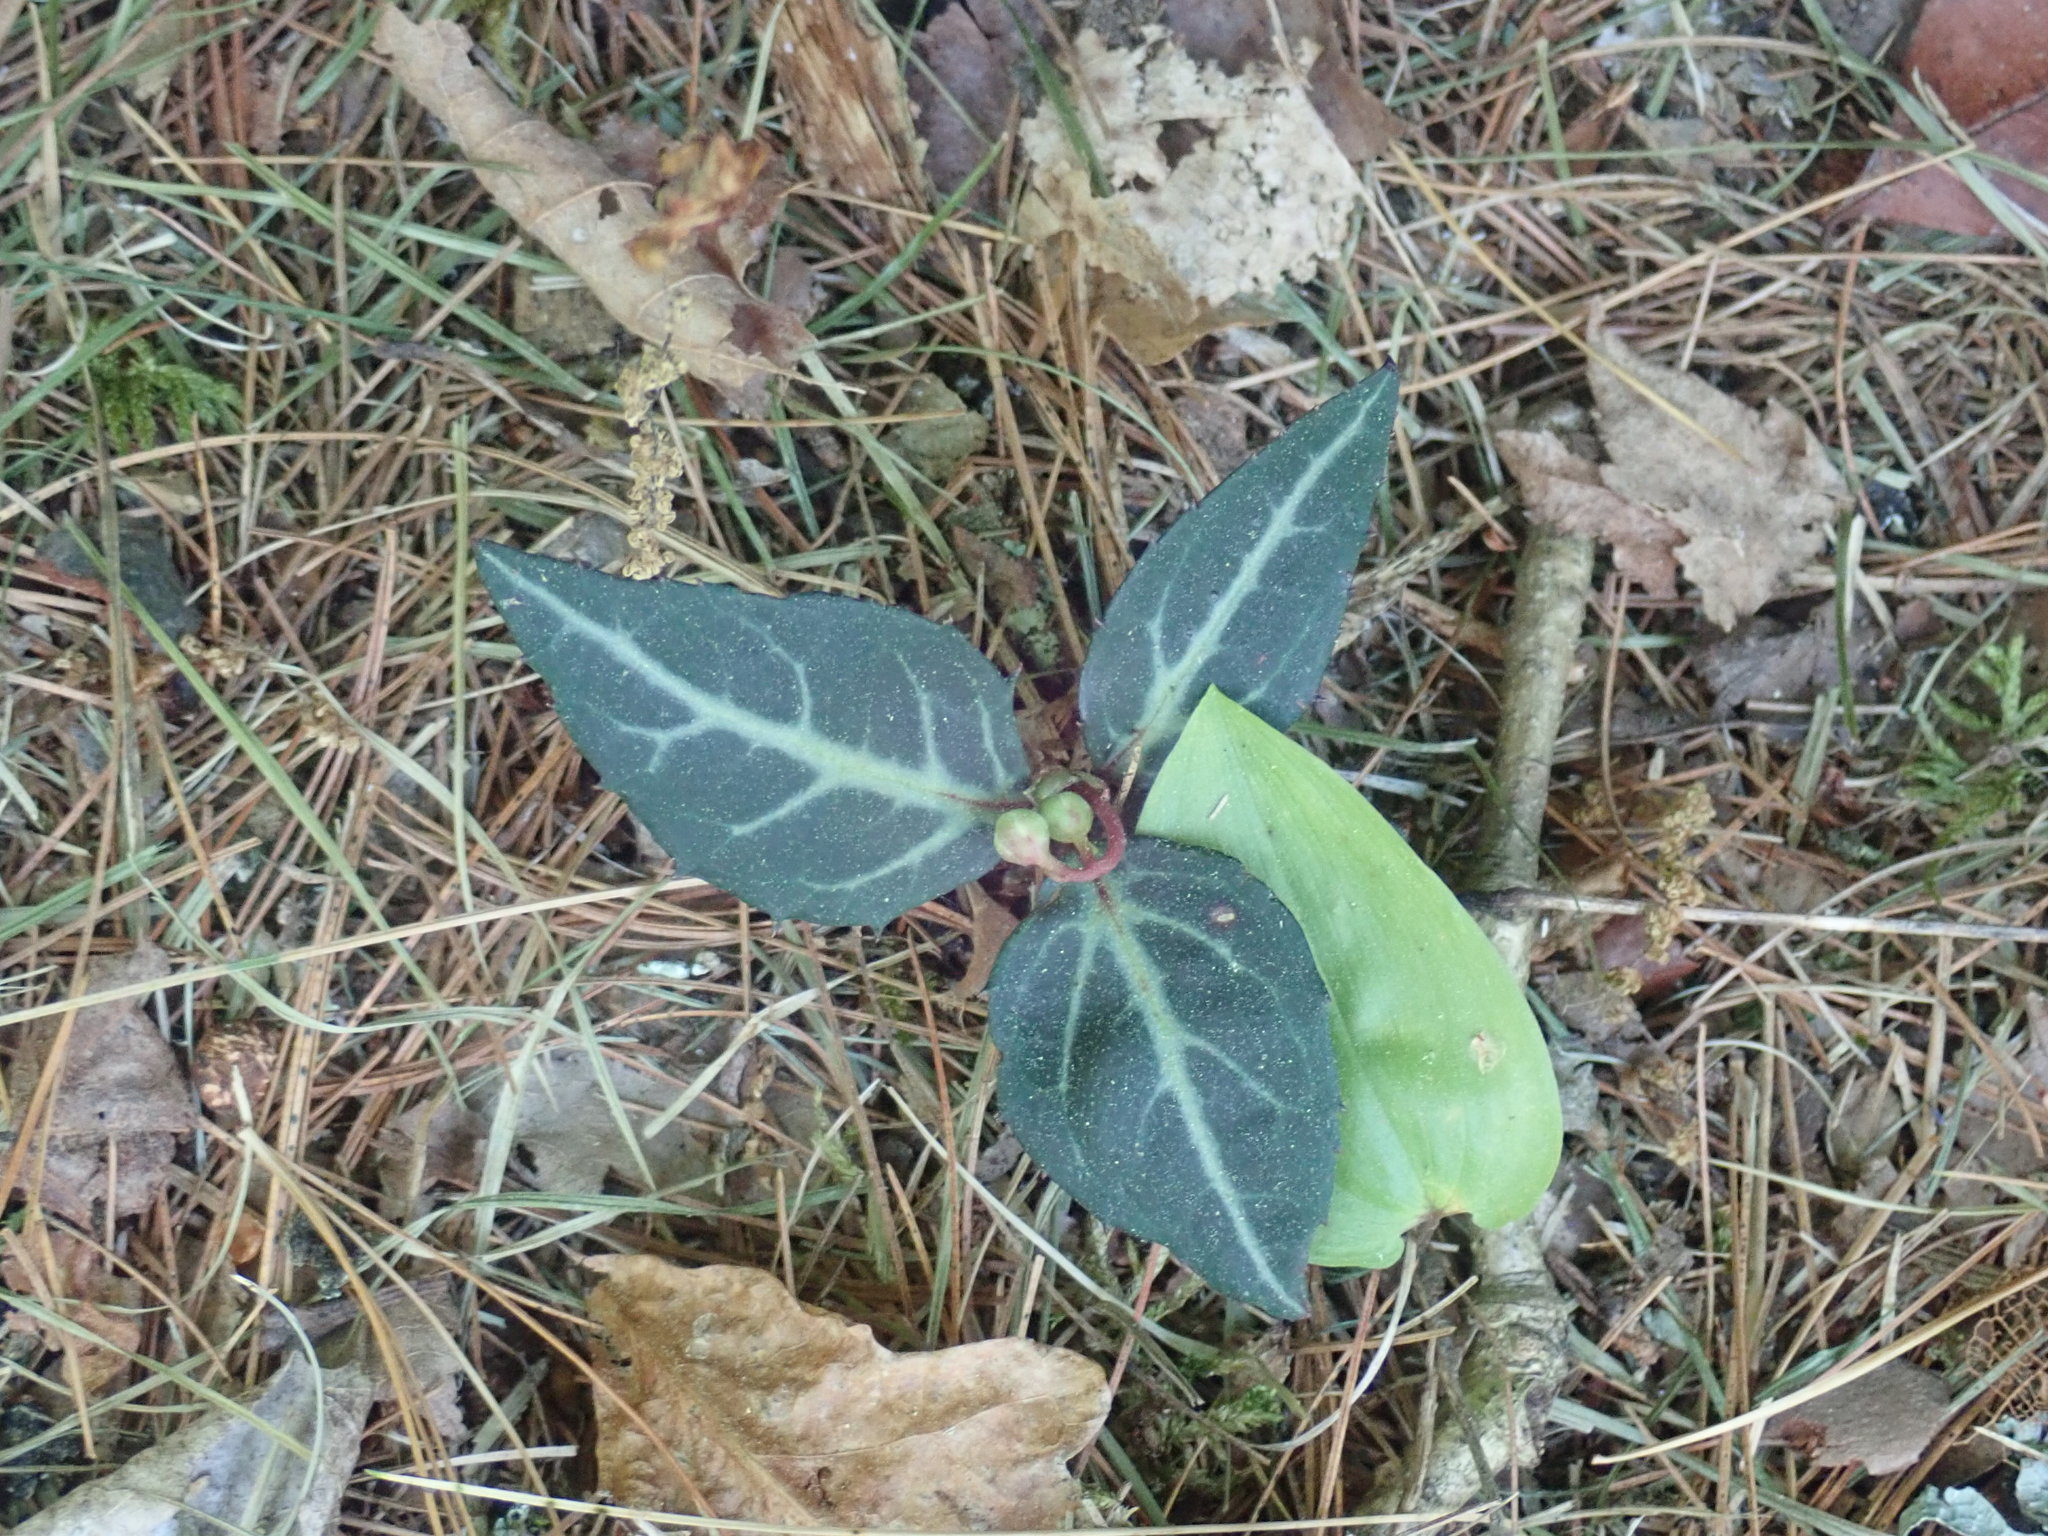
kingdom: Plantae
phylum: Tracheophyta
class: Magnoliopsida
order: Ericales
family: Ericaceae
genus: Chimaphila
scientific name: Chimaphila maculata
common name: Spotted pipsissewa
